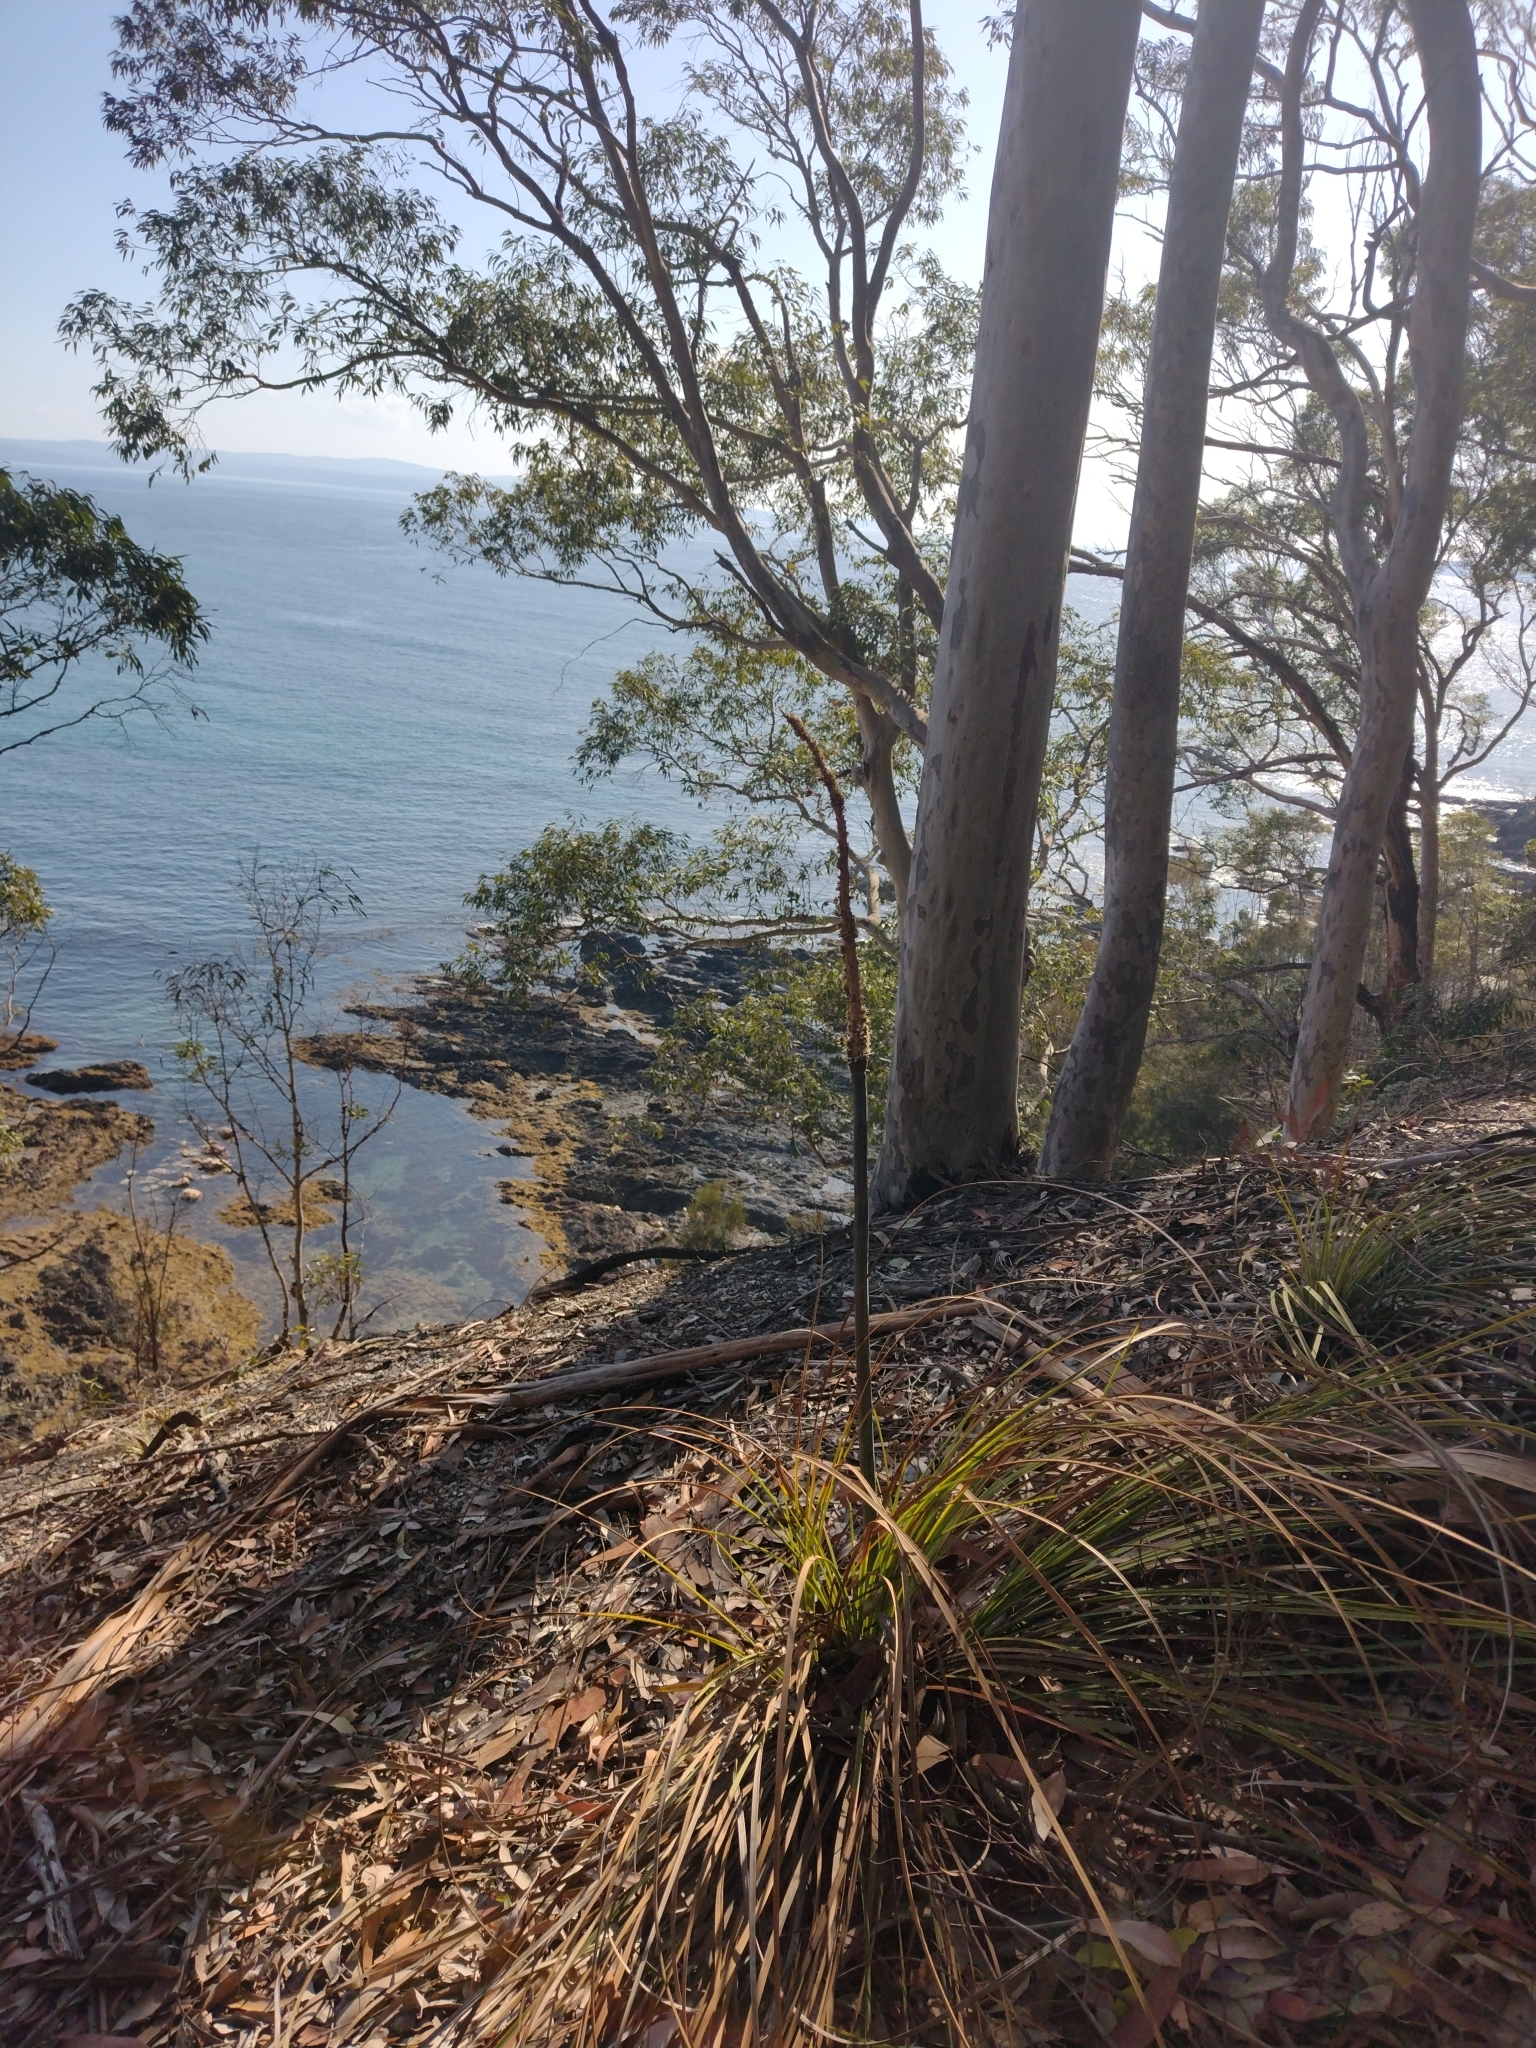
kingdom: Plantae
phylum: Tracheophyta
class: Liliopsida
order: Asparagales
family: Asphodelaceae
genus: Xanthorrhoea
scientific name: Xanthorrhoea concava
